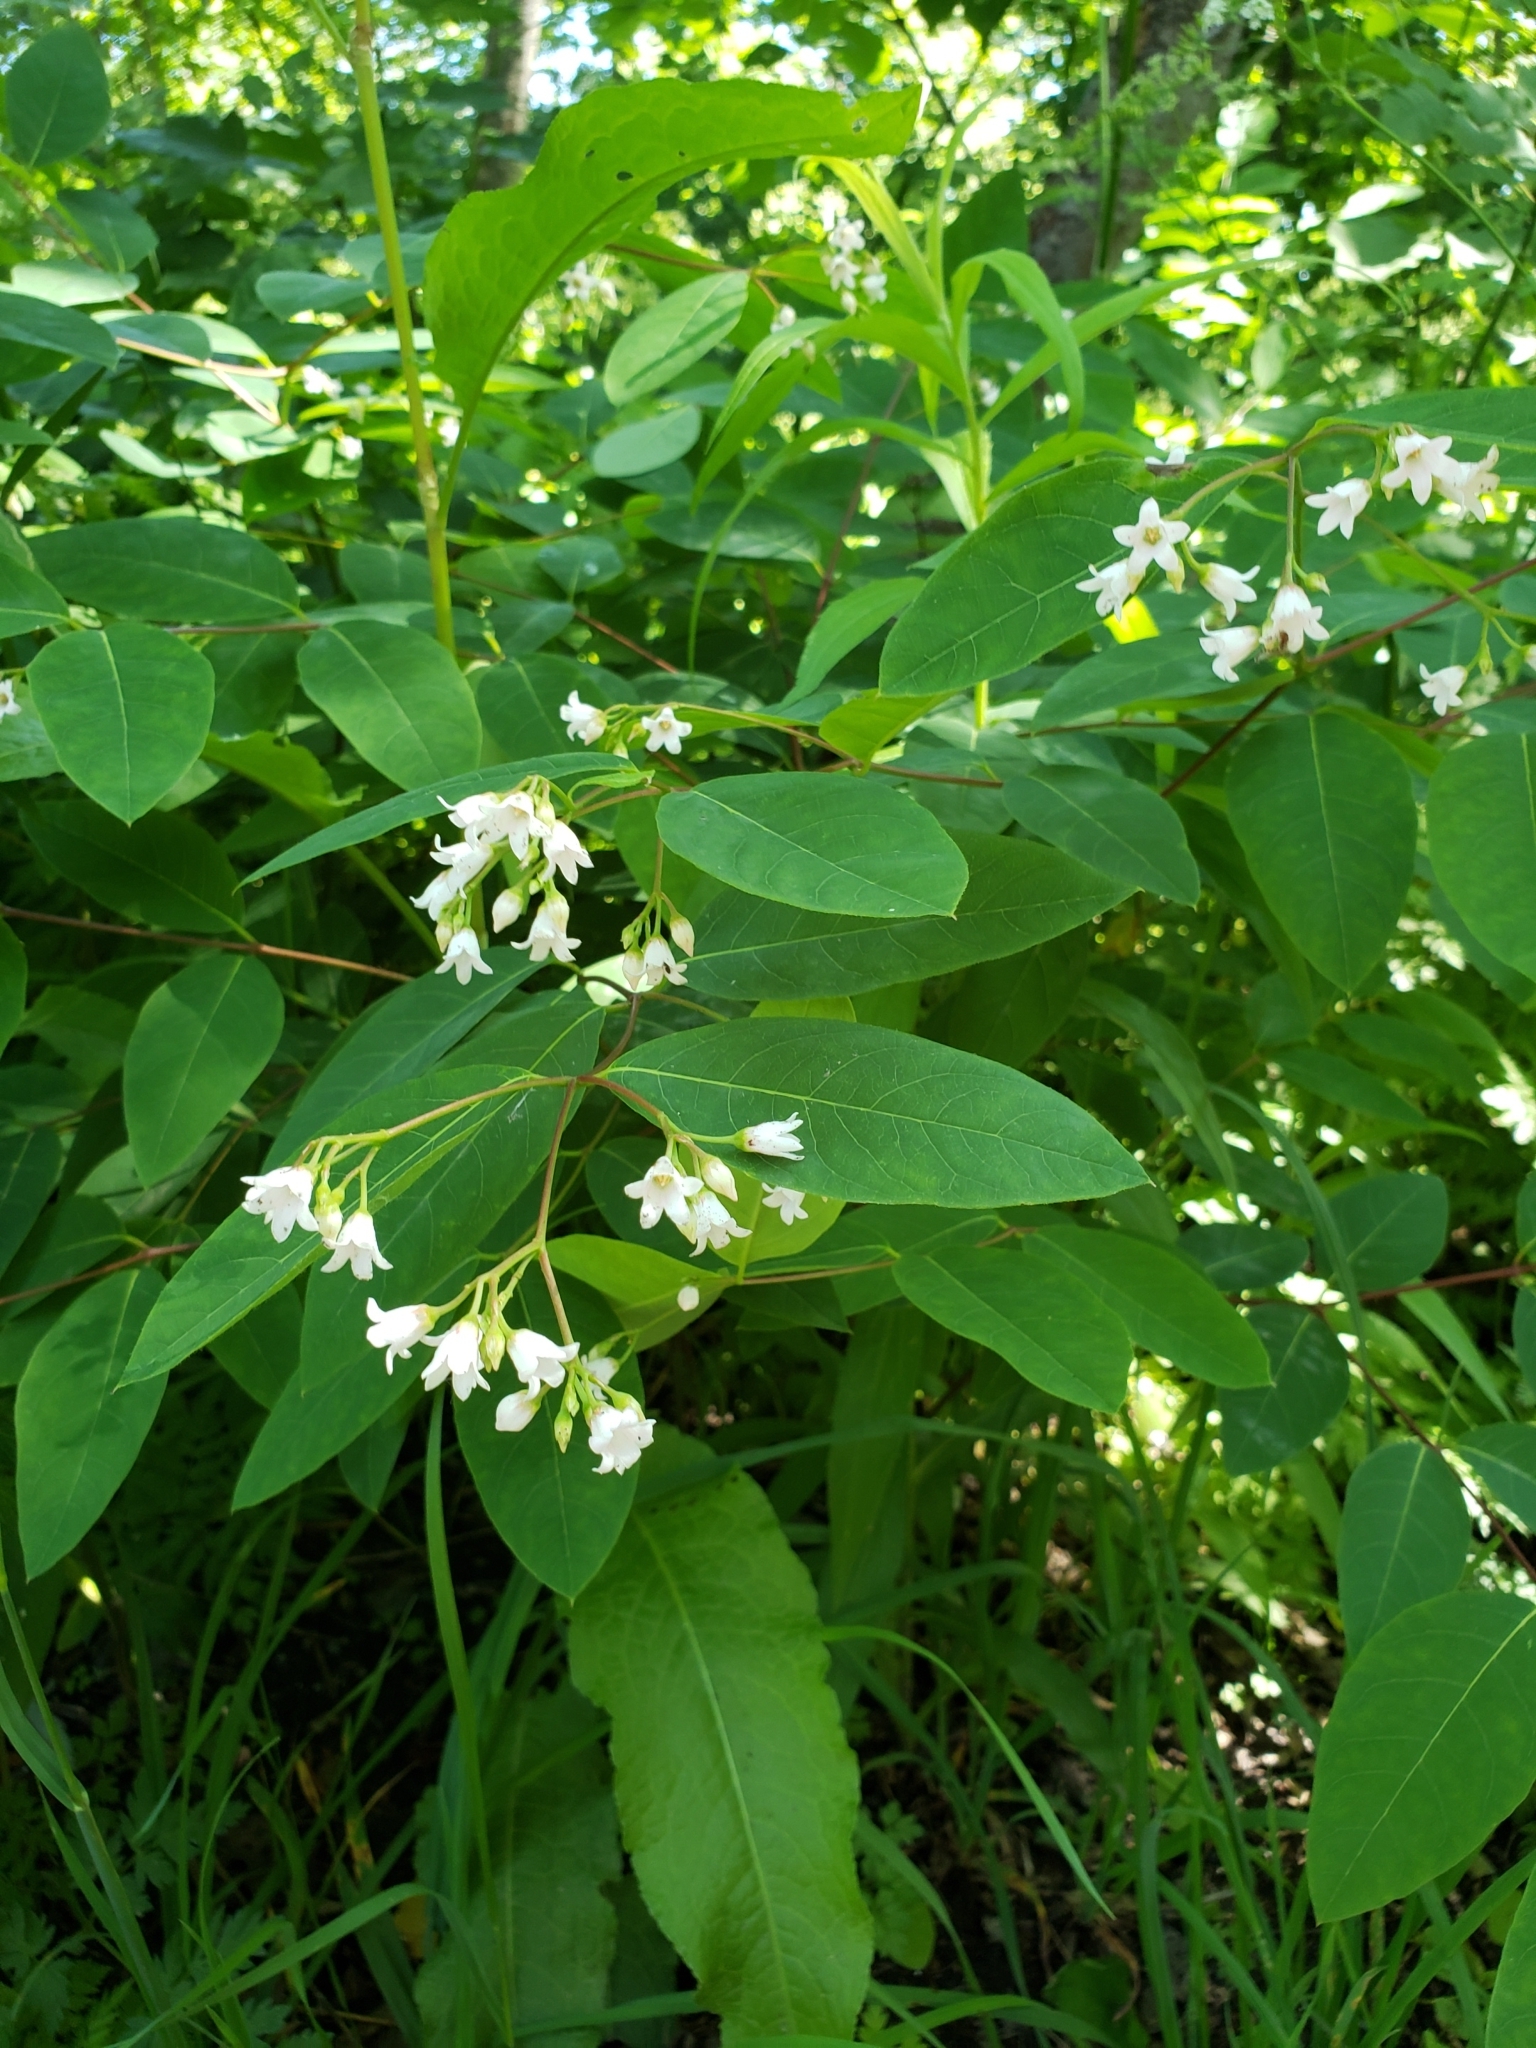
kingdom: Plantae
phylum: Tracheophyta
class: Magnoliopsida
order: Gentianales
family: Apocynaceae
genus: Apocynum
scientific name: Apocynum androsaemifolium
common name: Spreading dogbane
